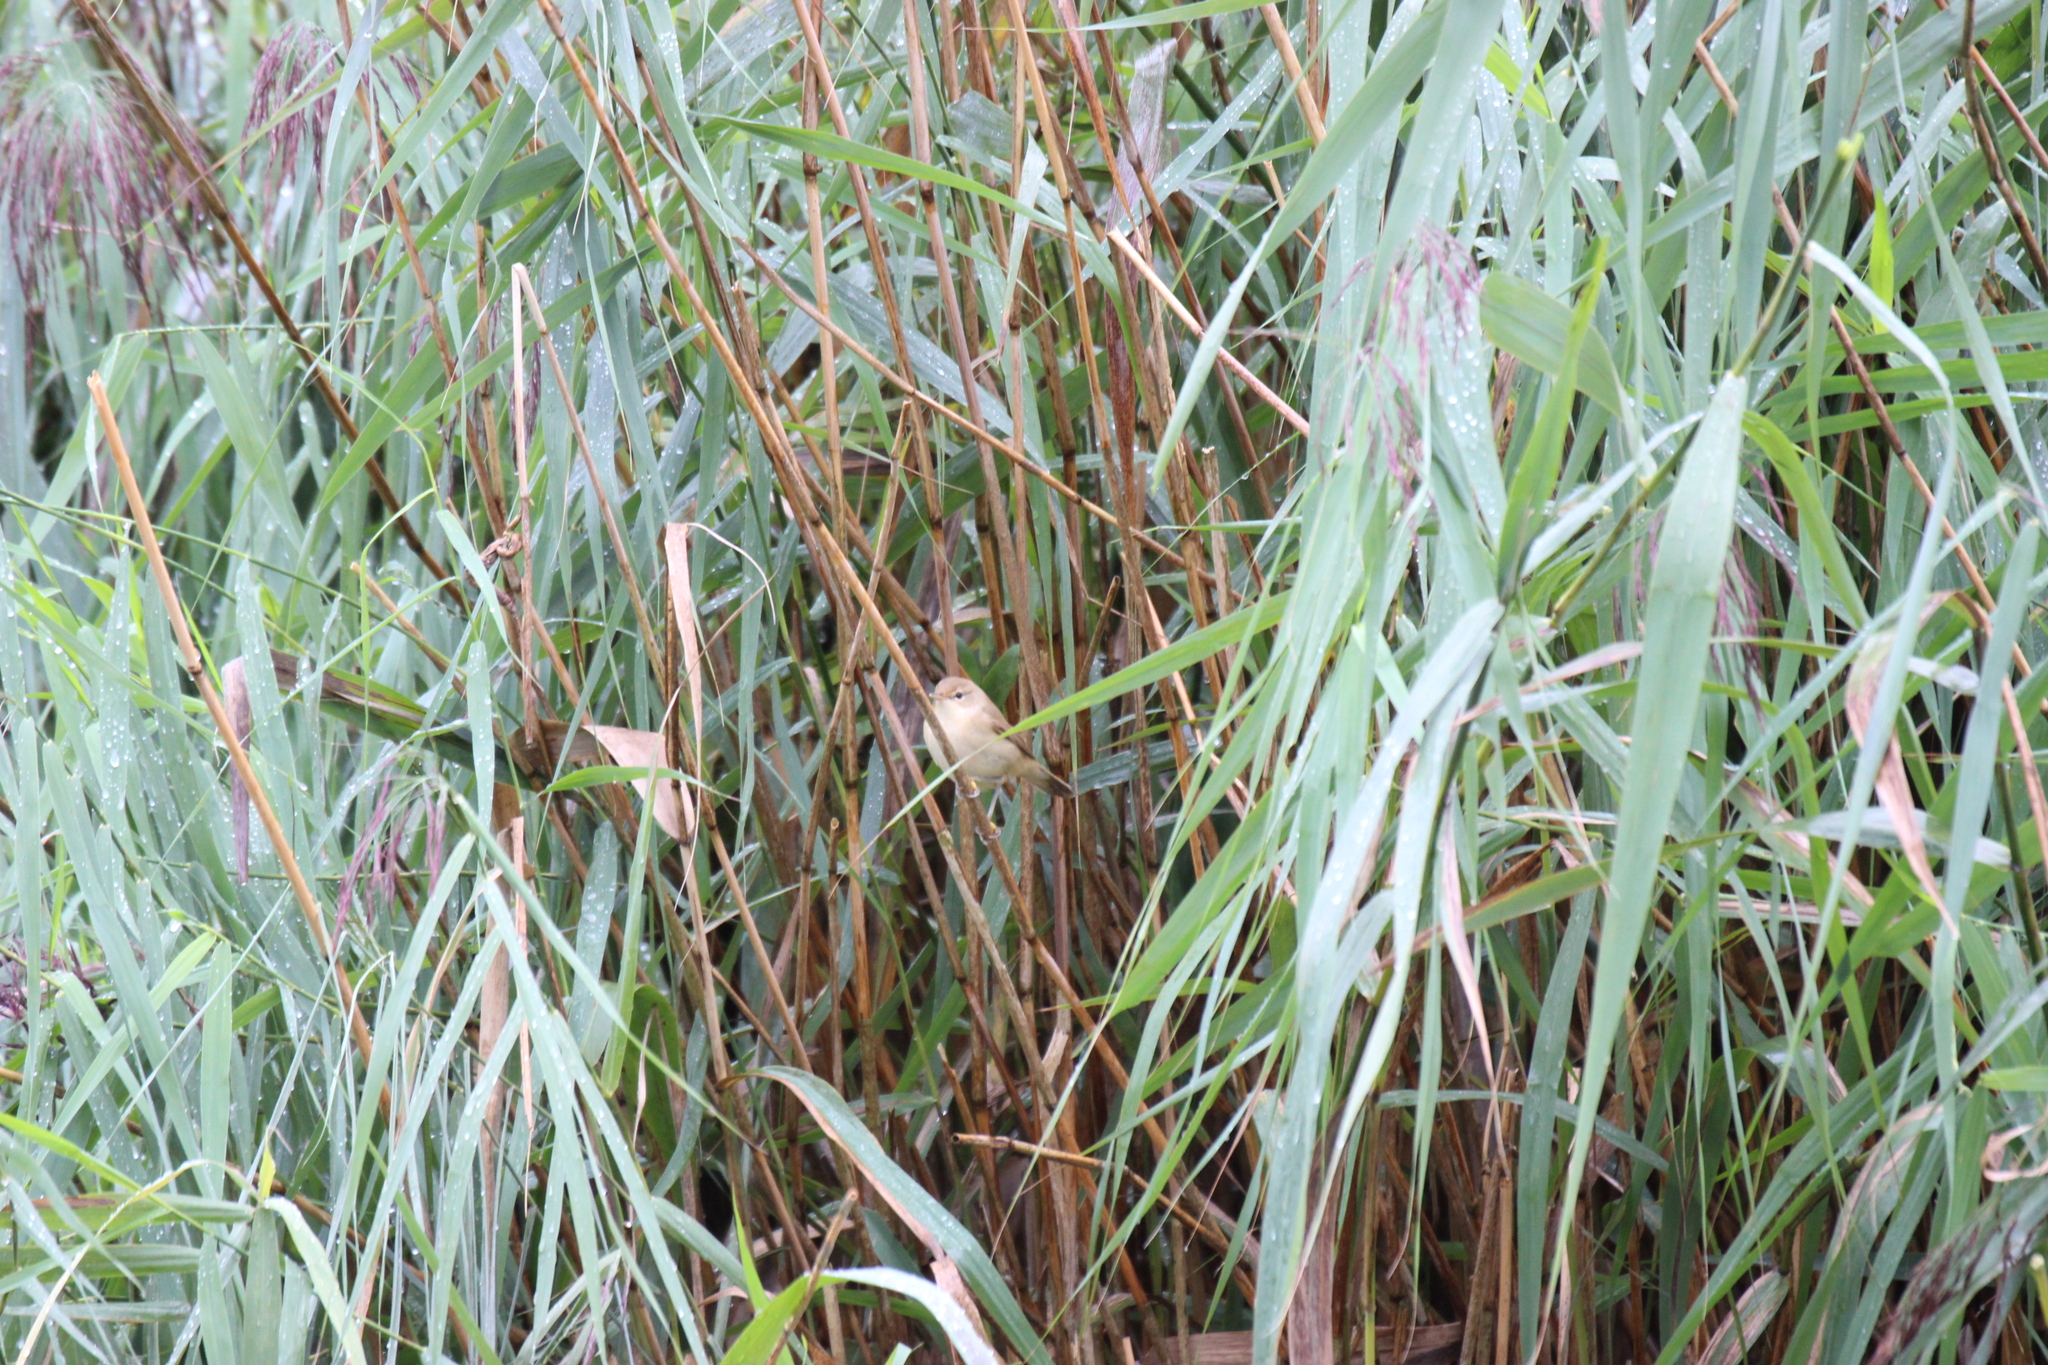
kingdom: Animalia
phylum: Chordata
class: Aves
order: Passeriformes
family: Acrocephalidae
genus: Acrocephalus
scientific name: Acrocephalus scirpaceus
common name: Eurasian reed warbler
